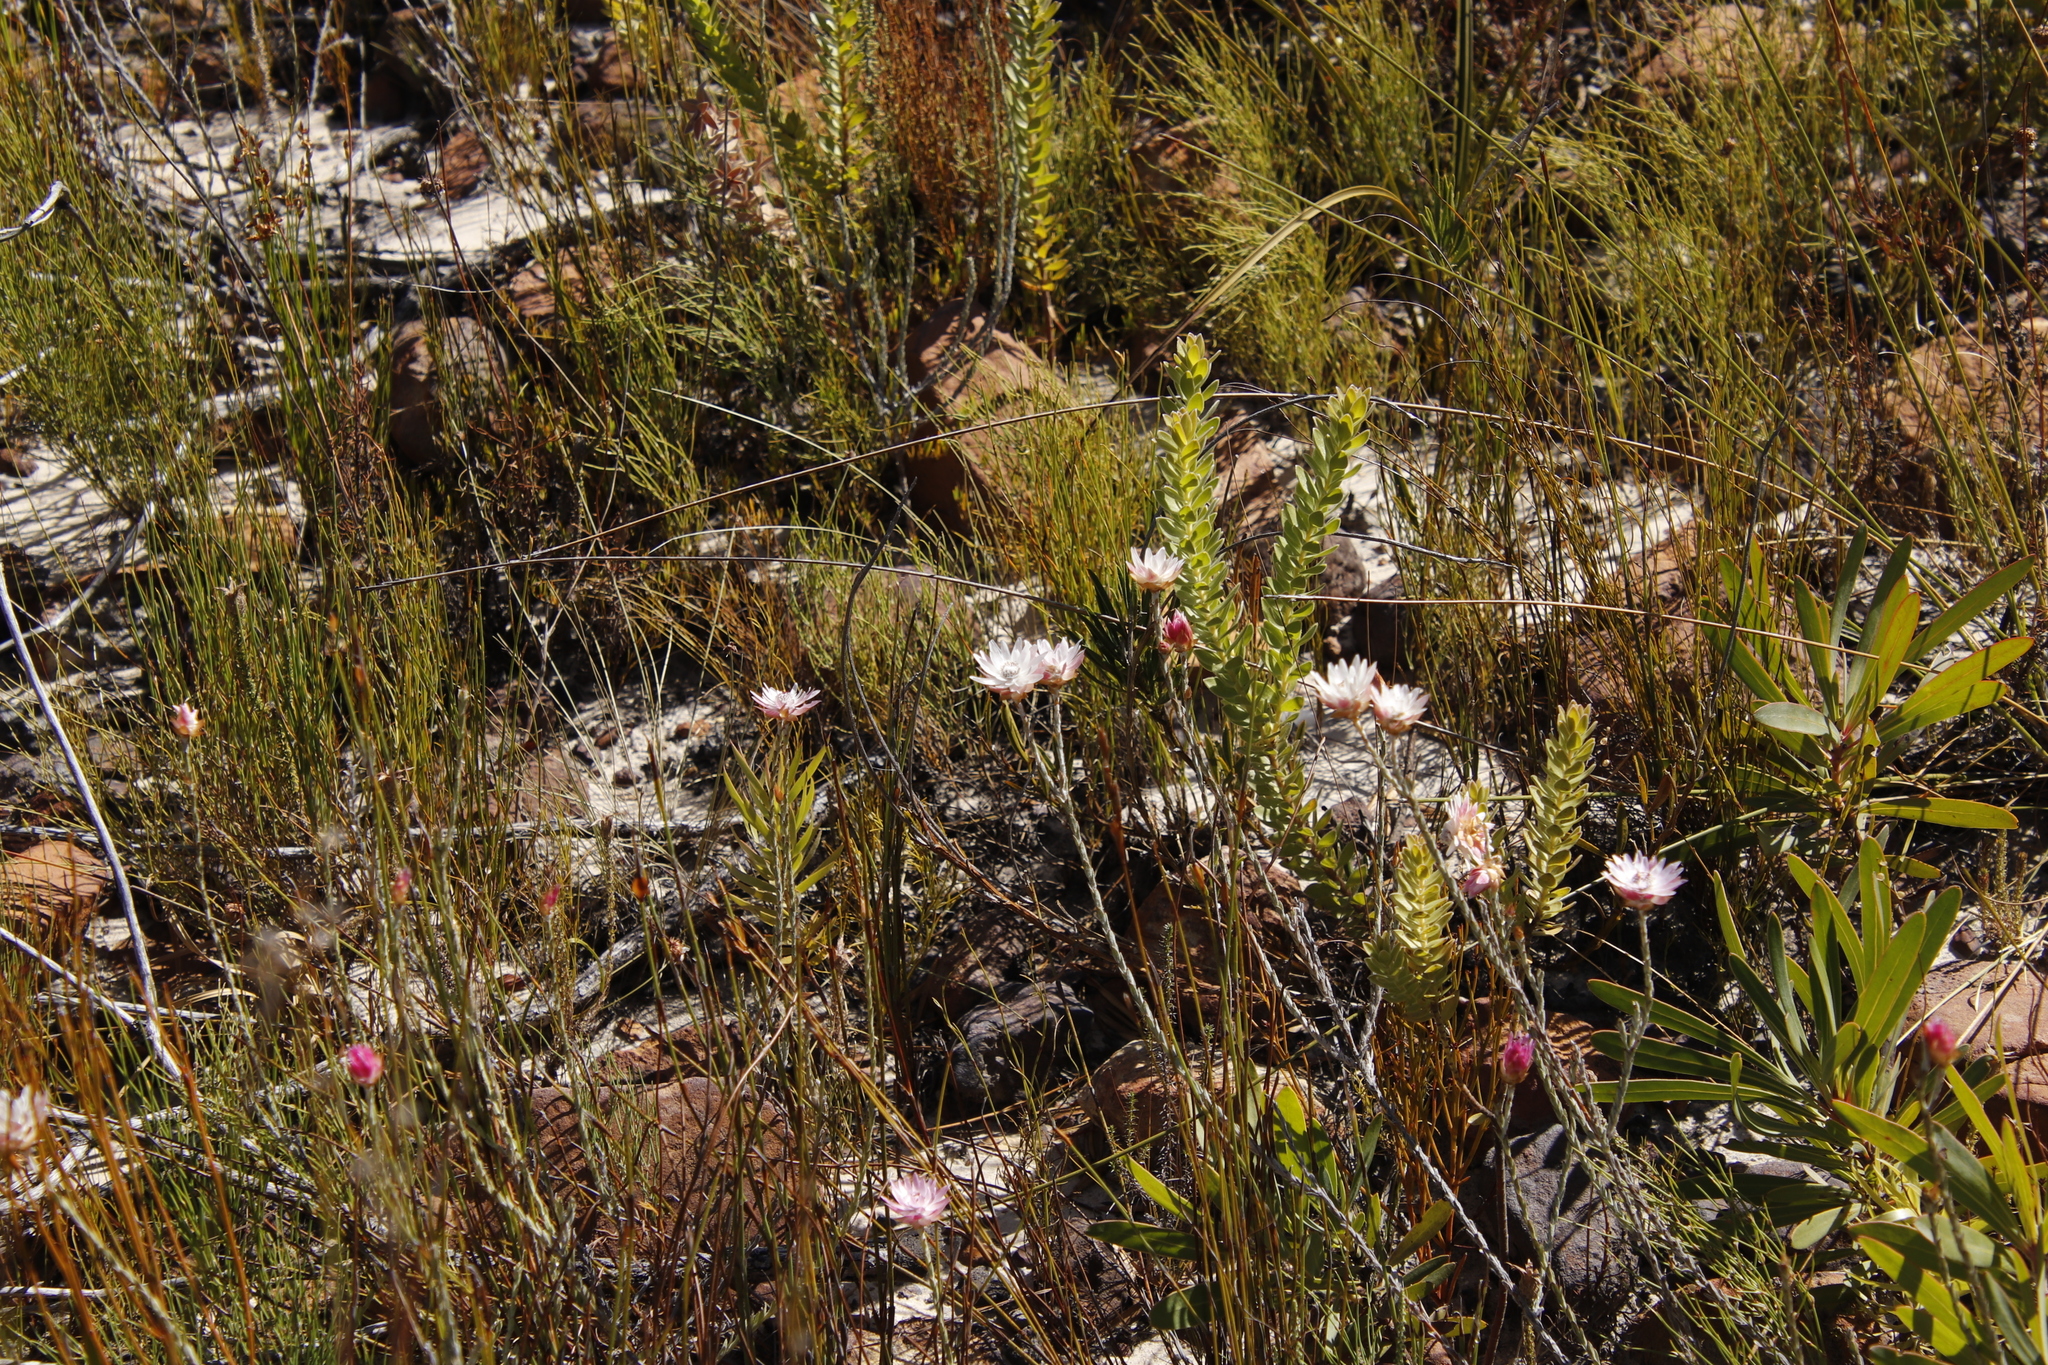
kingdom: Plantae
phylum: Tracheophyta
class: Magnoliopsida
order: Proteales
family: Proteaceae
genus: Diastella
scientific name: Diastella thymelaeoides
